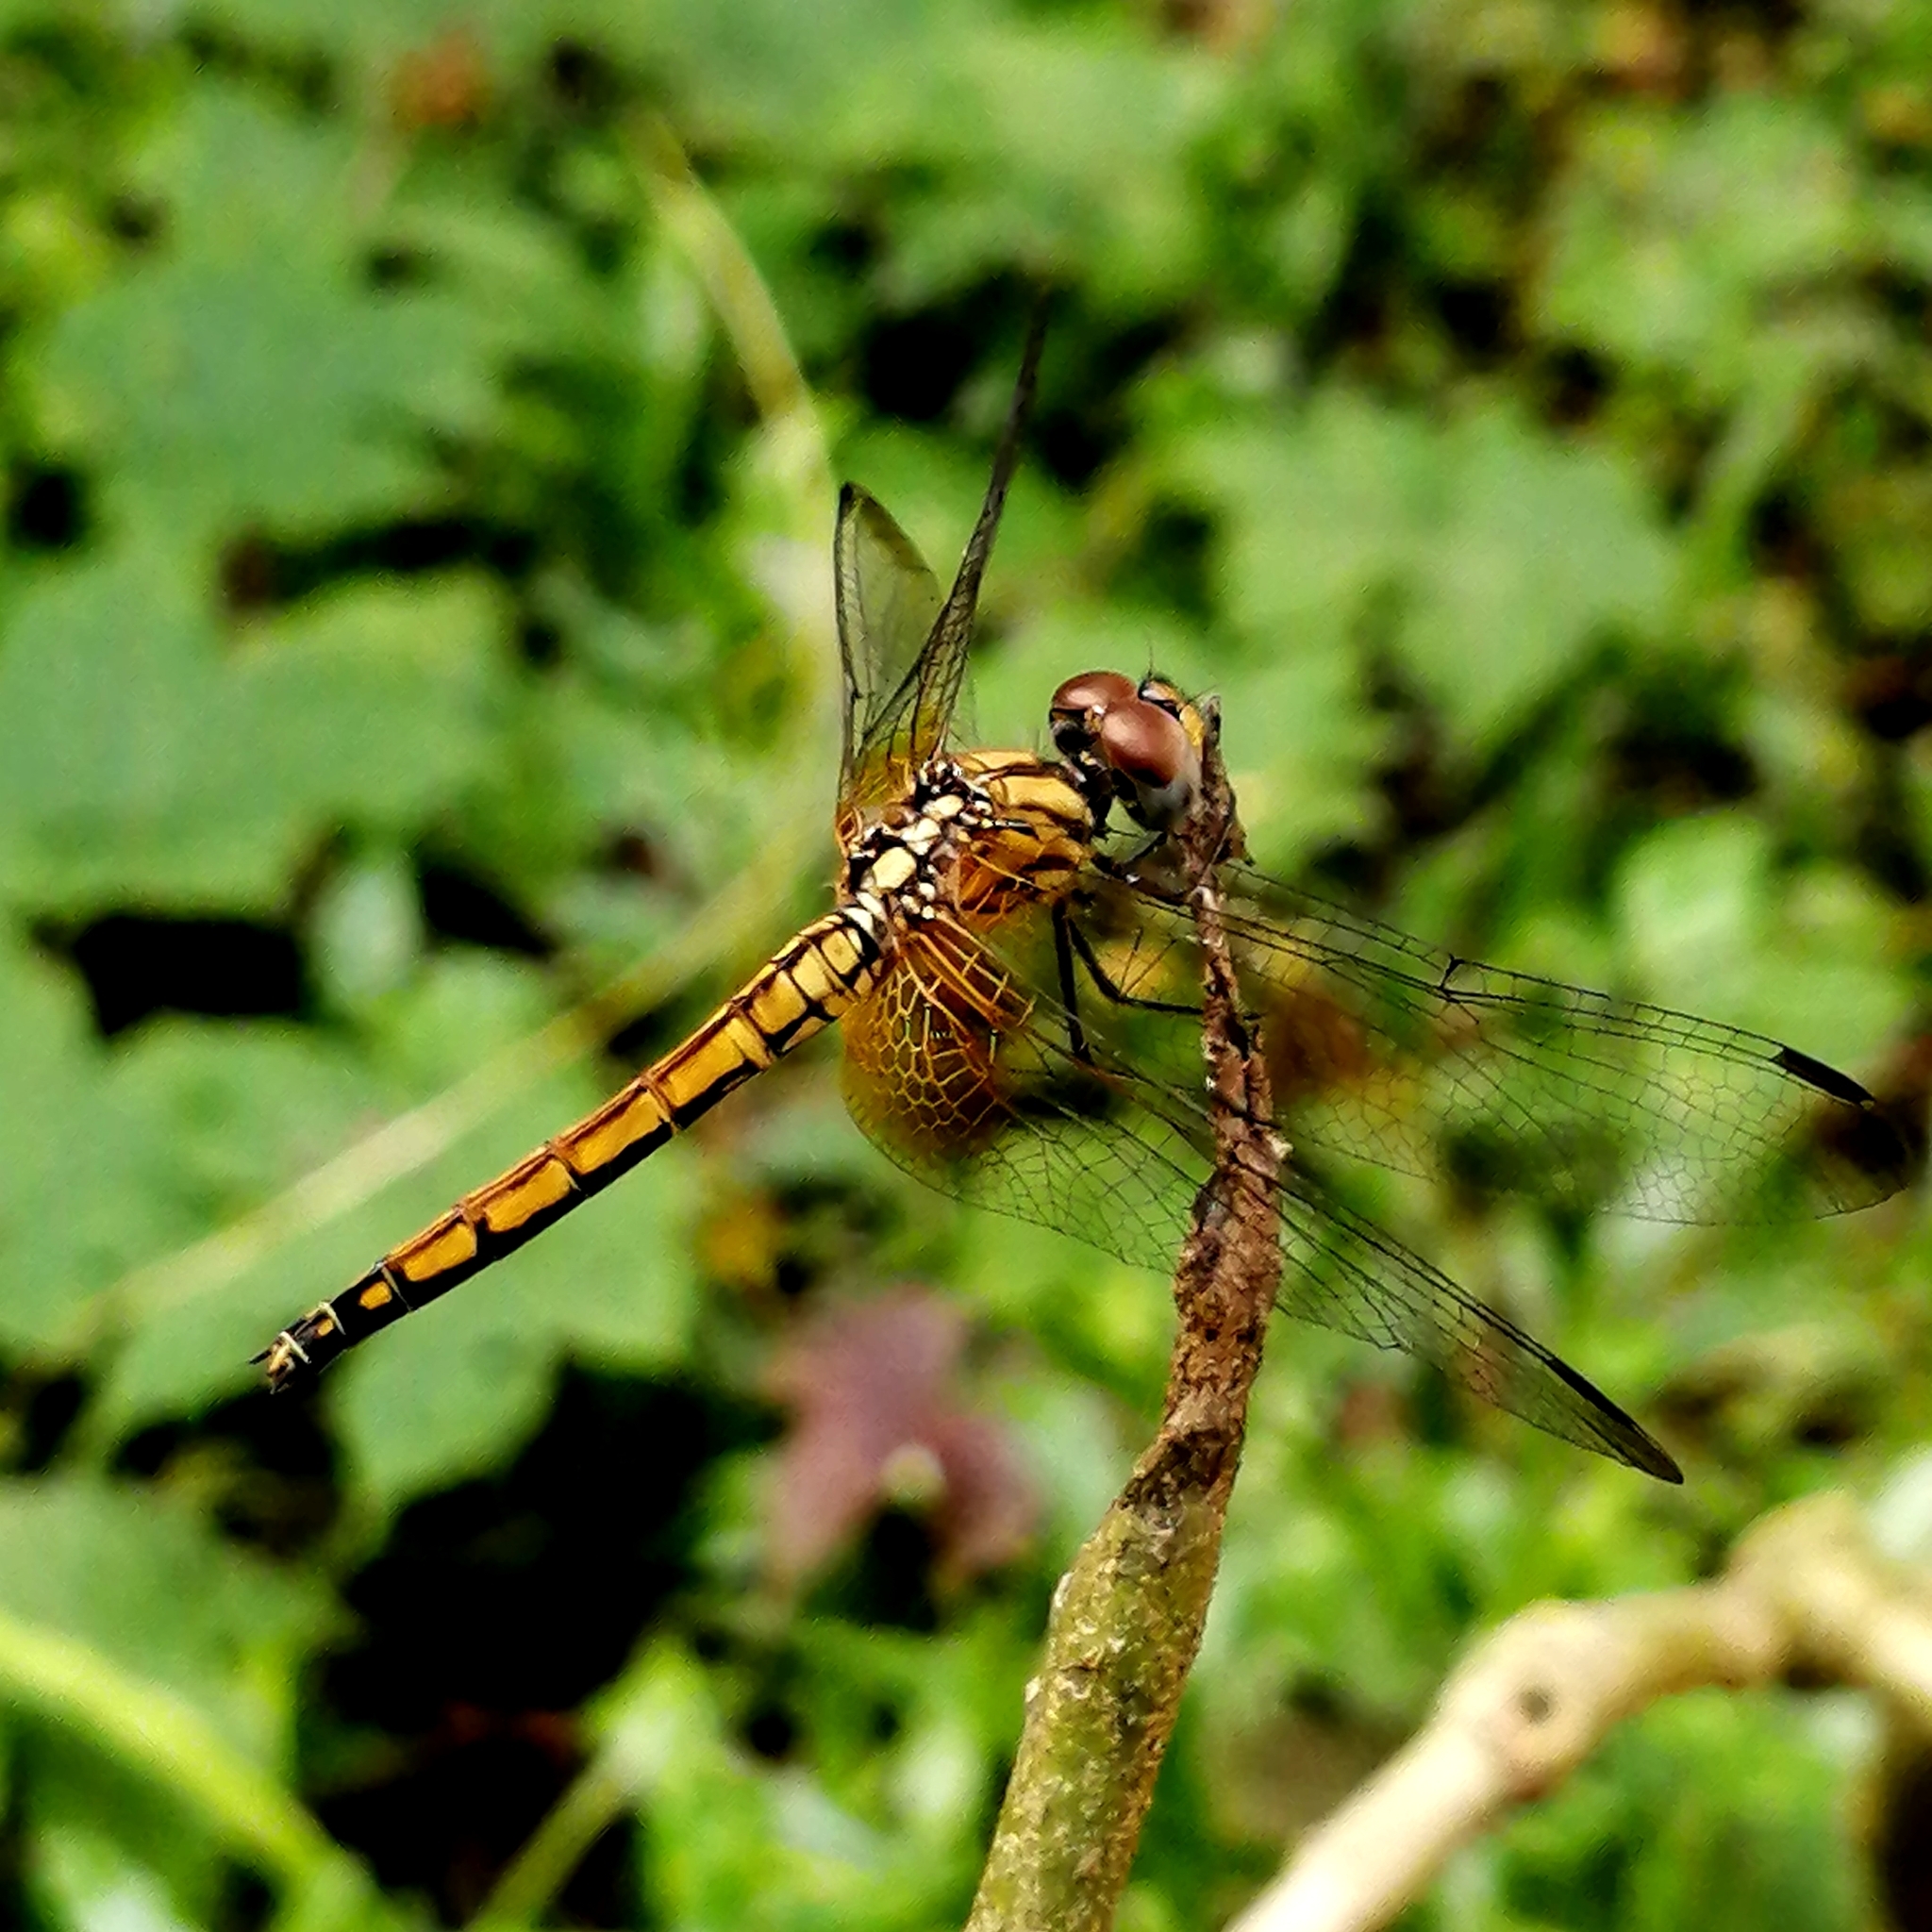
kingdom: Animalia
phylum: Arthropoda
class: Insecta
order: Odonata
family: Libellulidae
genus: Trithemis
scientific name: Trithemis aurora
